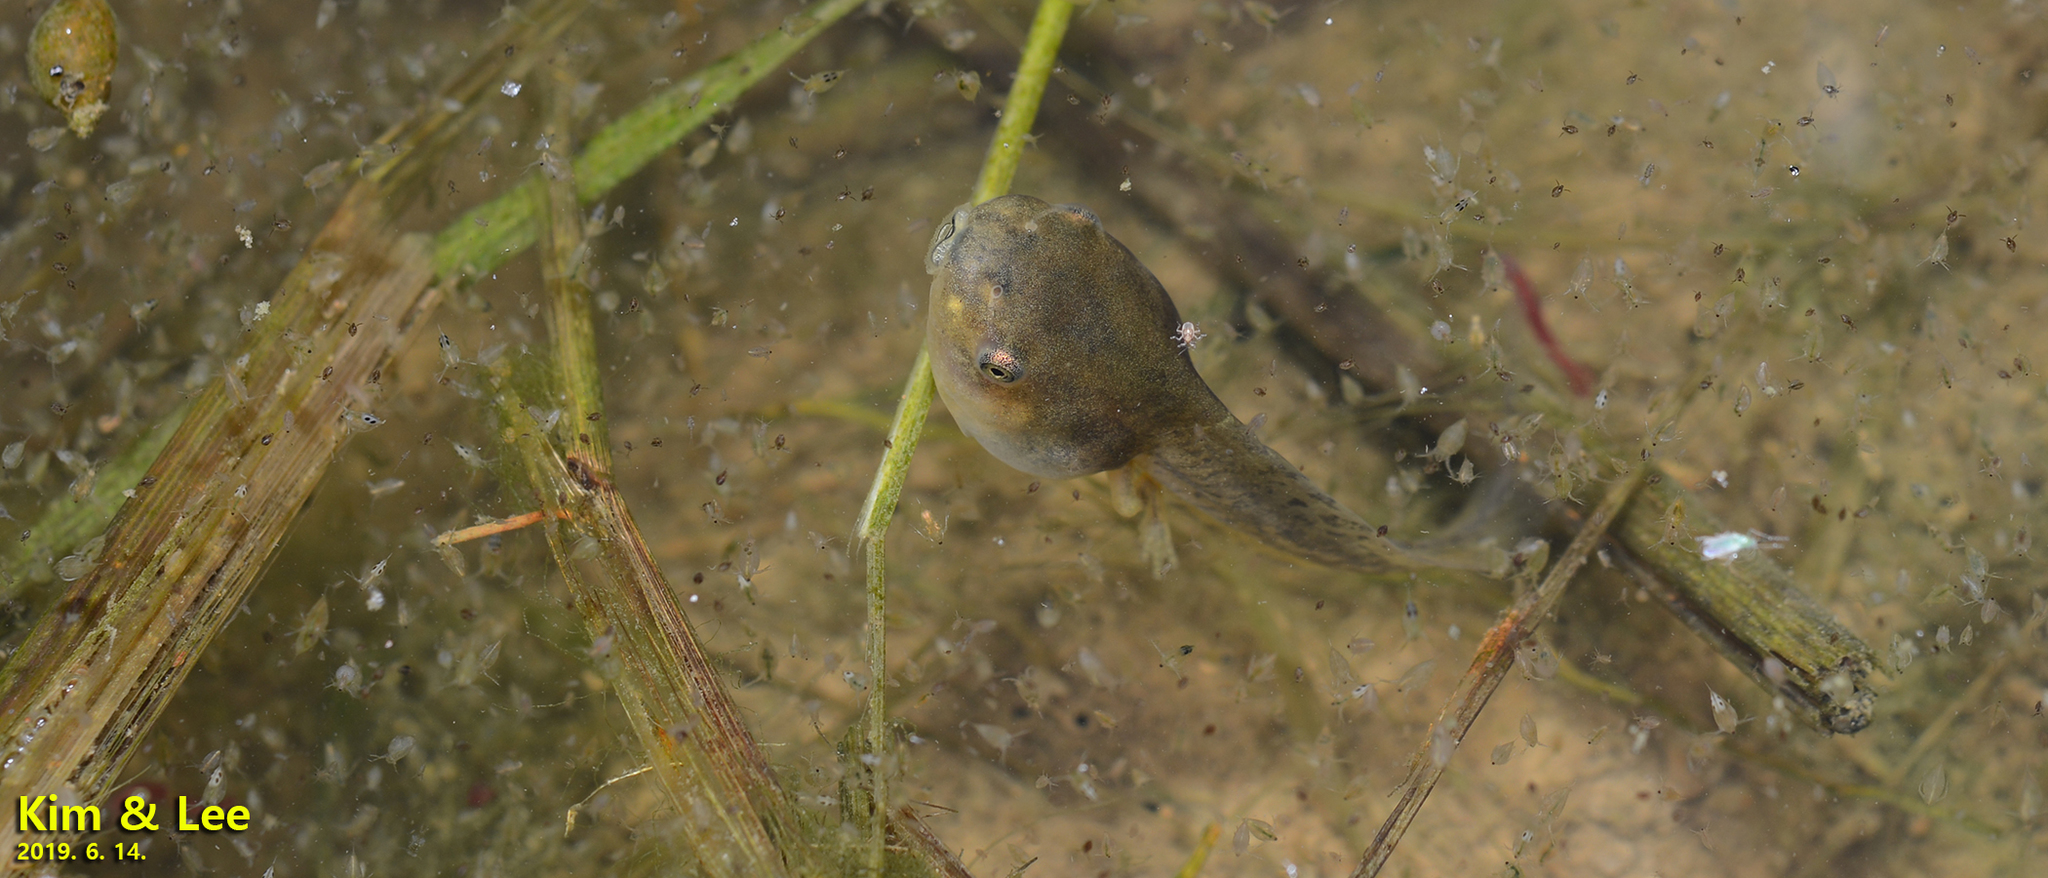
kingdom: Animalia
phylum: Chordata
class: Amphibia
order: Anura
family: Hylidae
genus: Dryophytes
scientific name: Dryophytes japonicus
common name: Japanese treefrog
